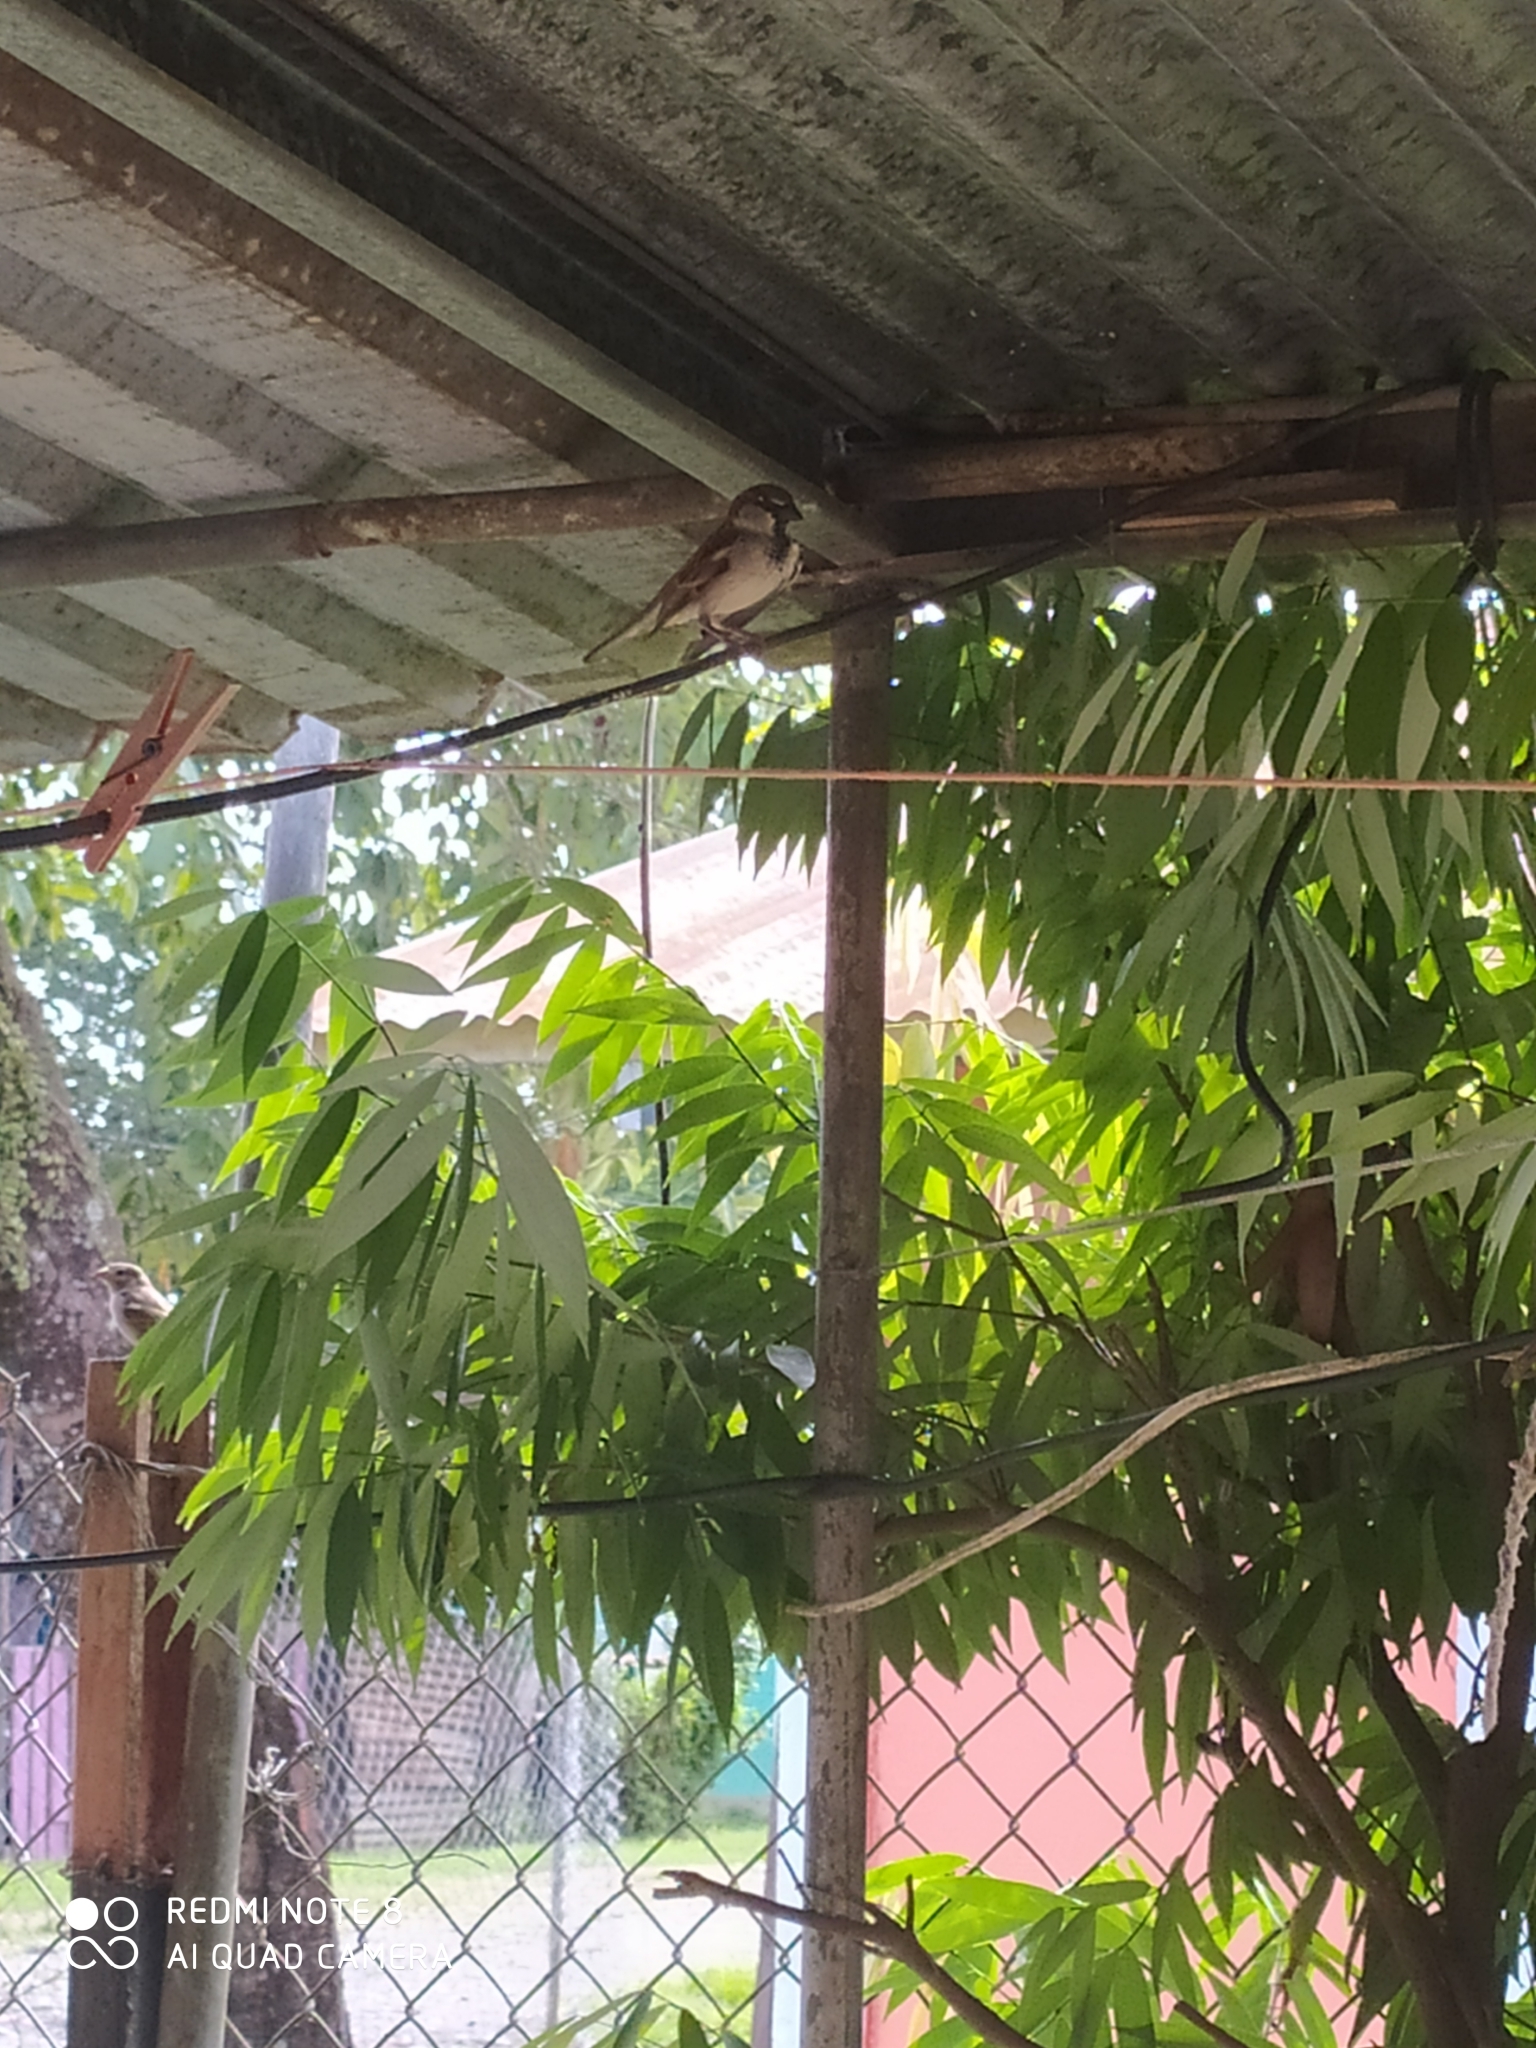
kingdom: Animalia
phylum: Chordata
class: Aves
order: Passeriformes
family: Passeridae
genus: Passer
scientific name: Passer domesticus
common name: House sparrow
